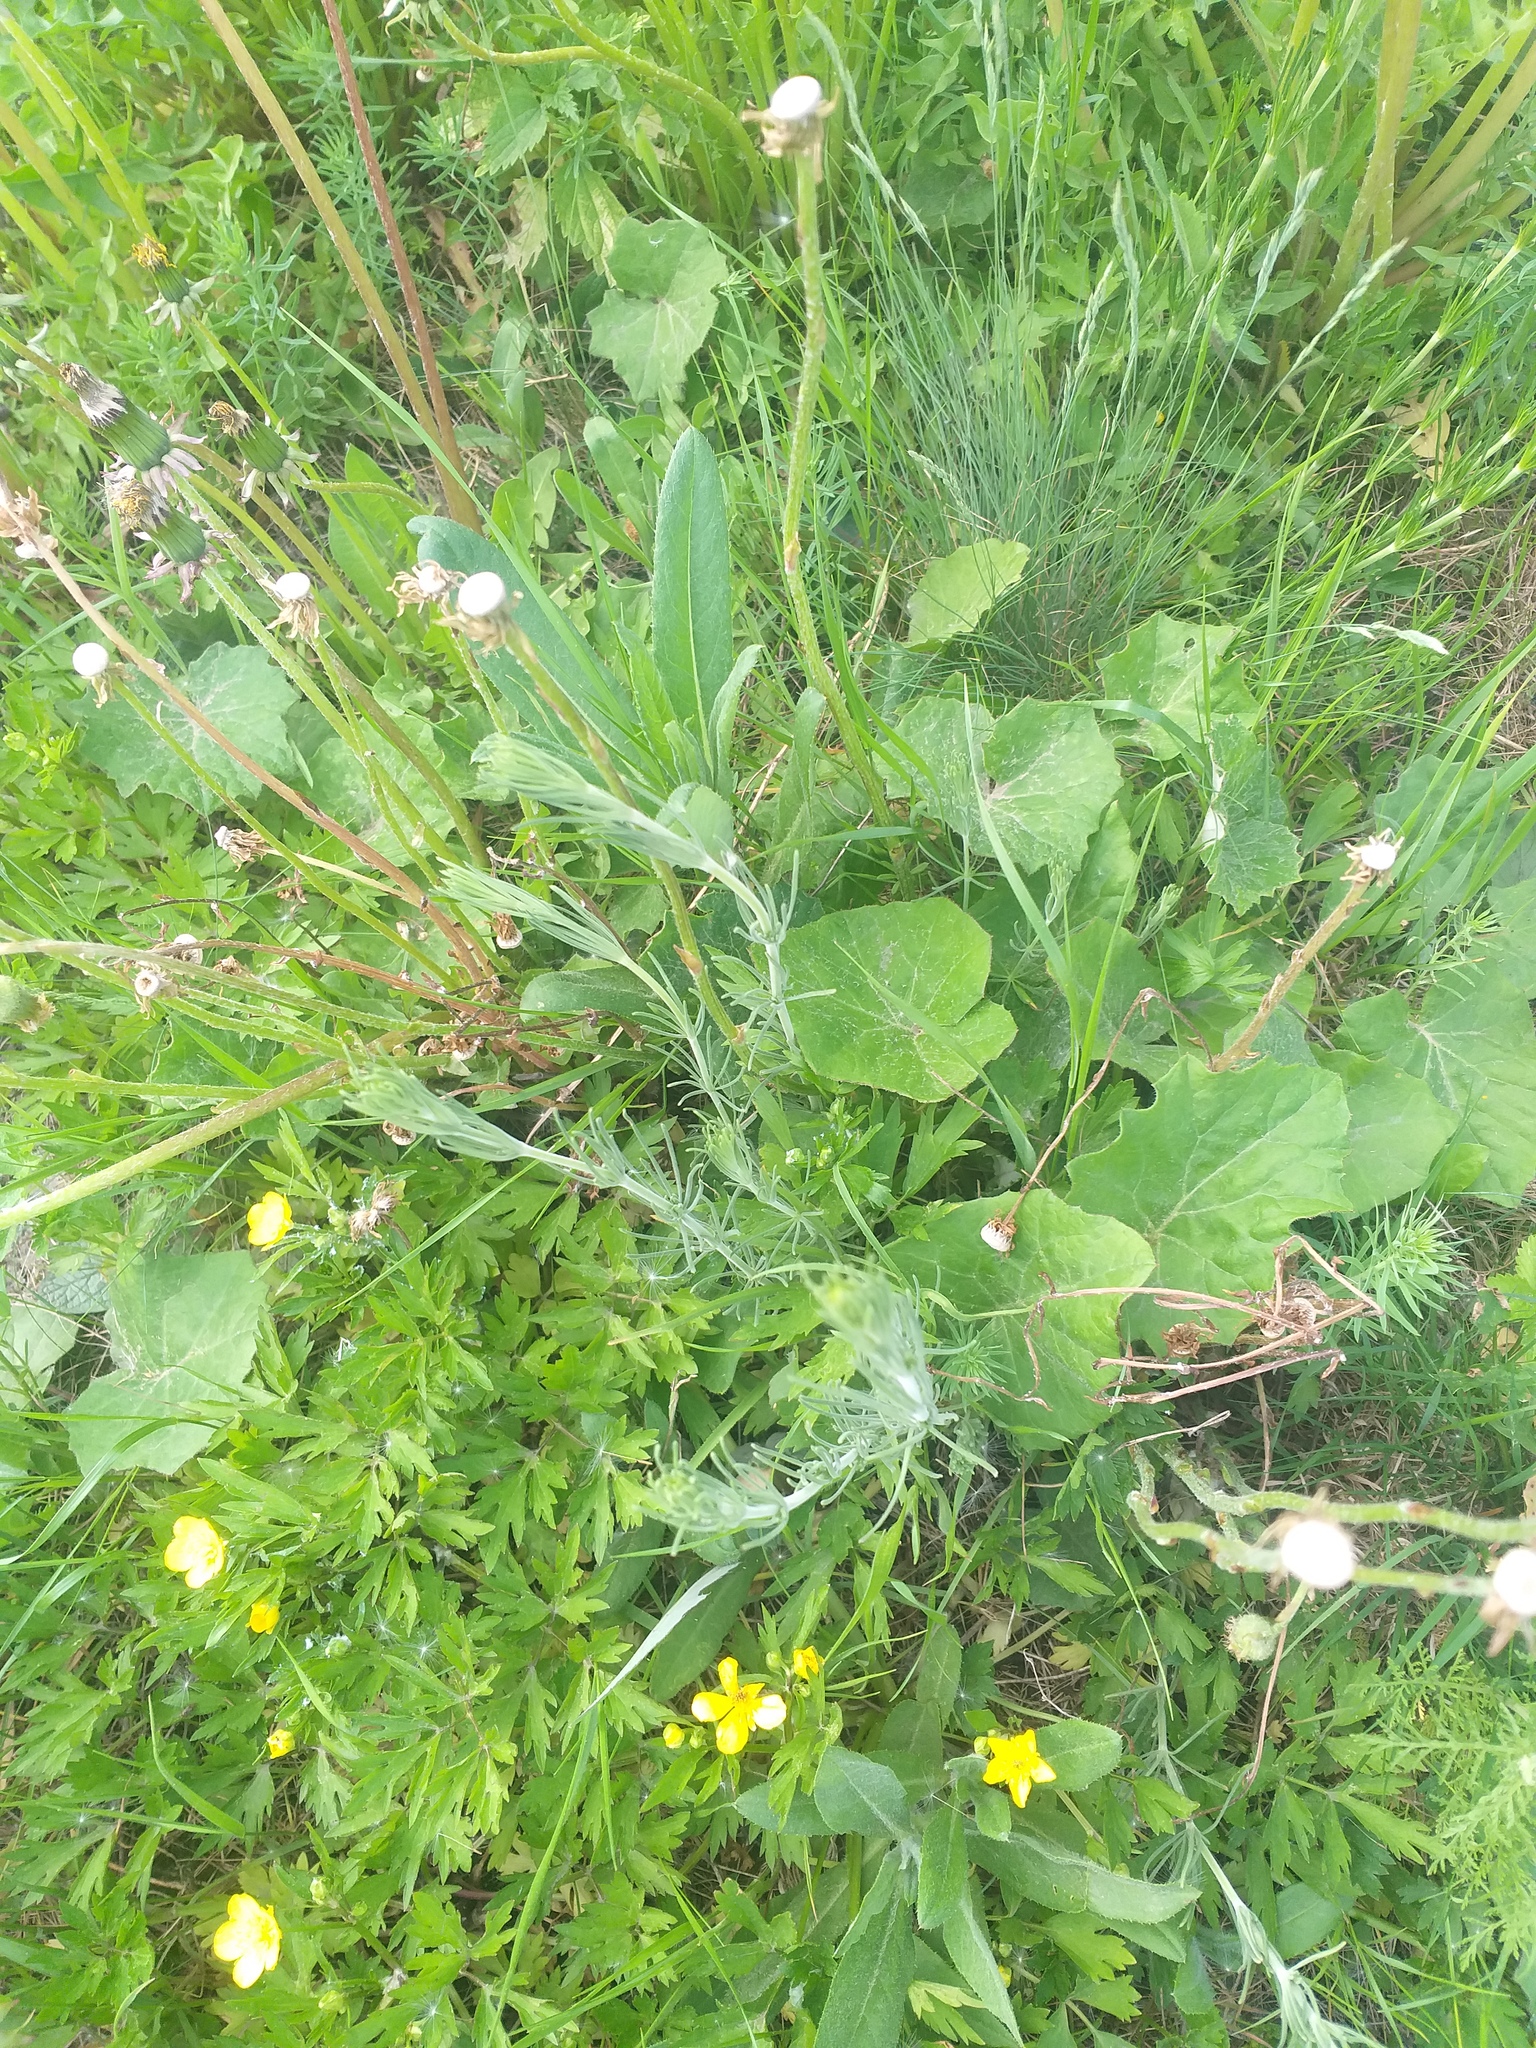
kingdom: Plantae
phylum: Tracheophyta
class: Magnoliopsida
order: Gentianales
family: Rubiaceae
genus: Galium
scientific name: Galium verum
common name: Lady's bedstraw
